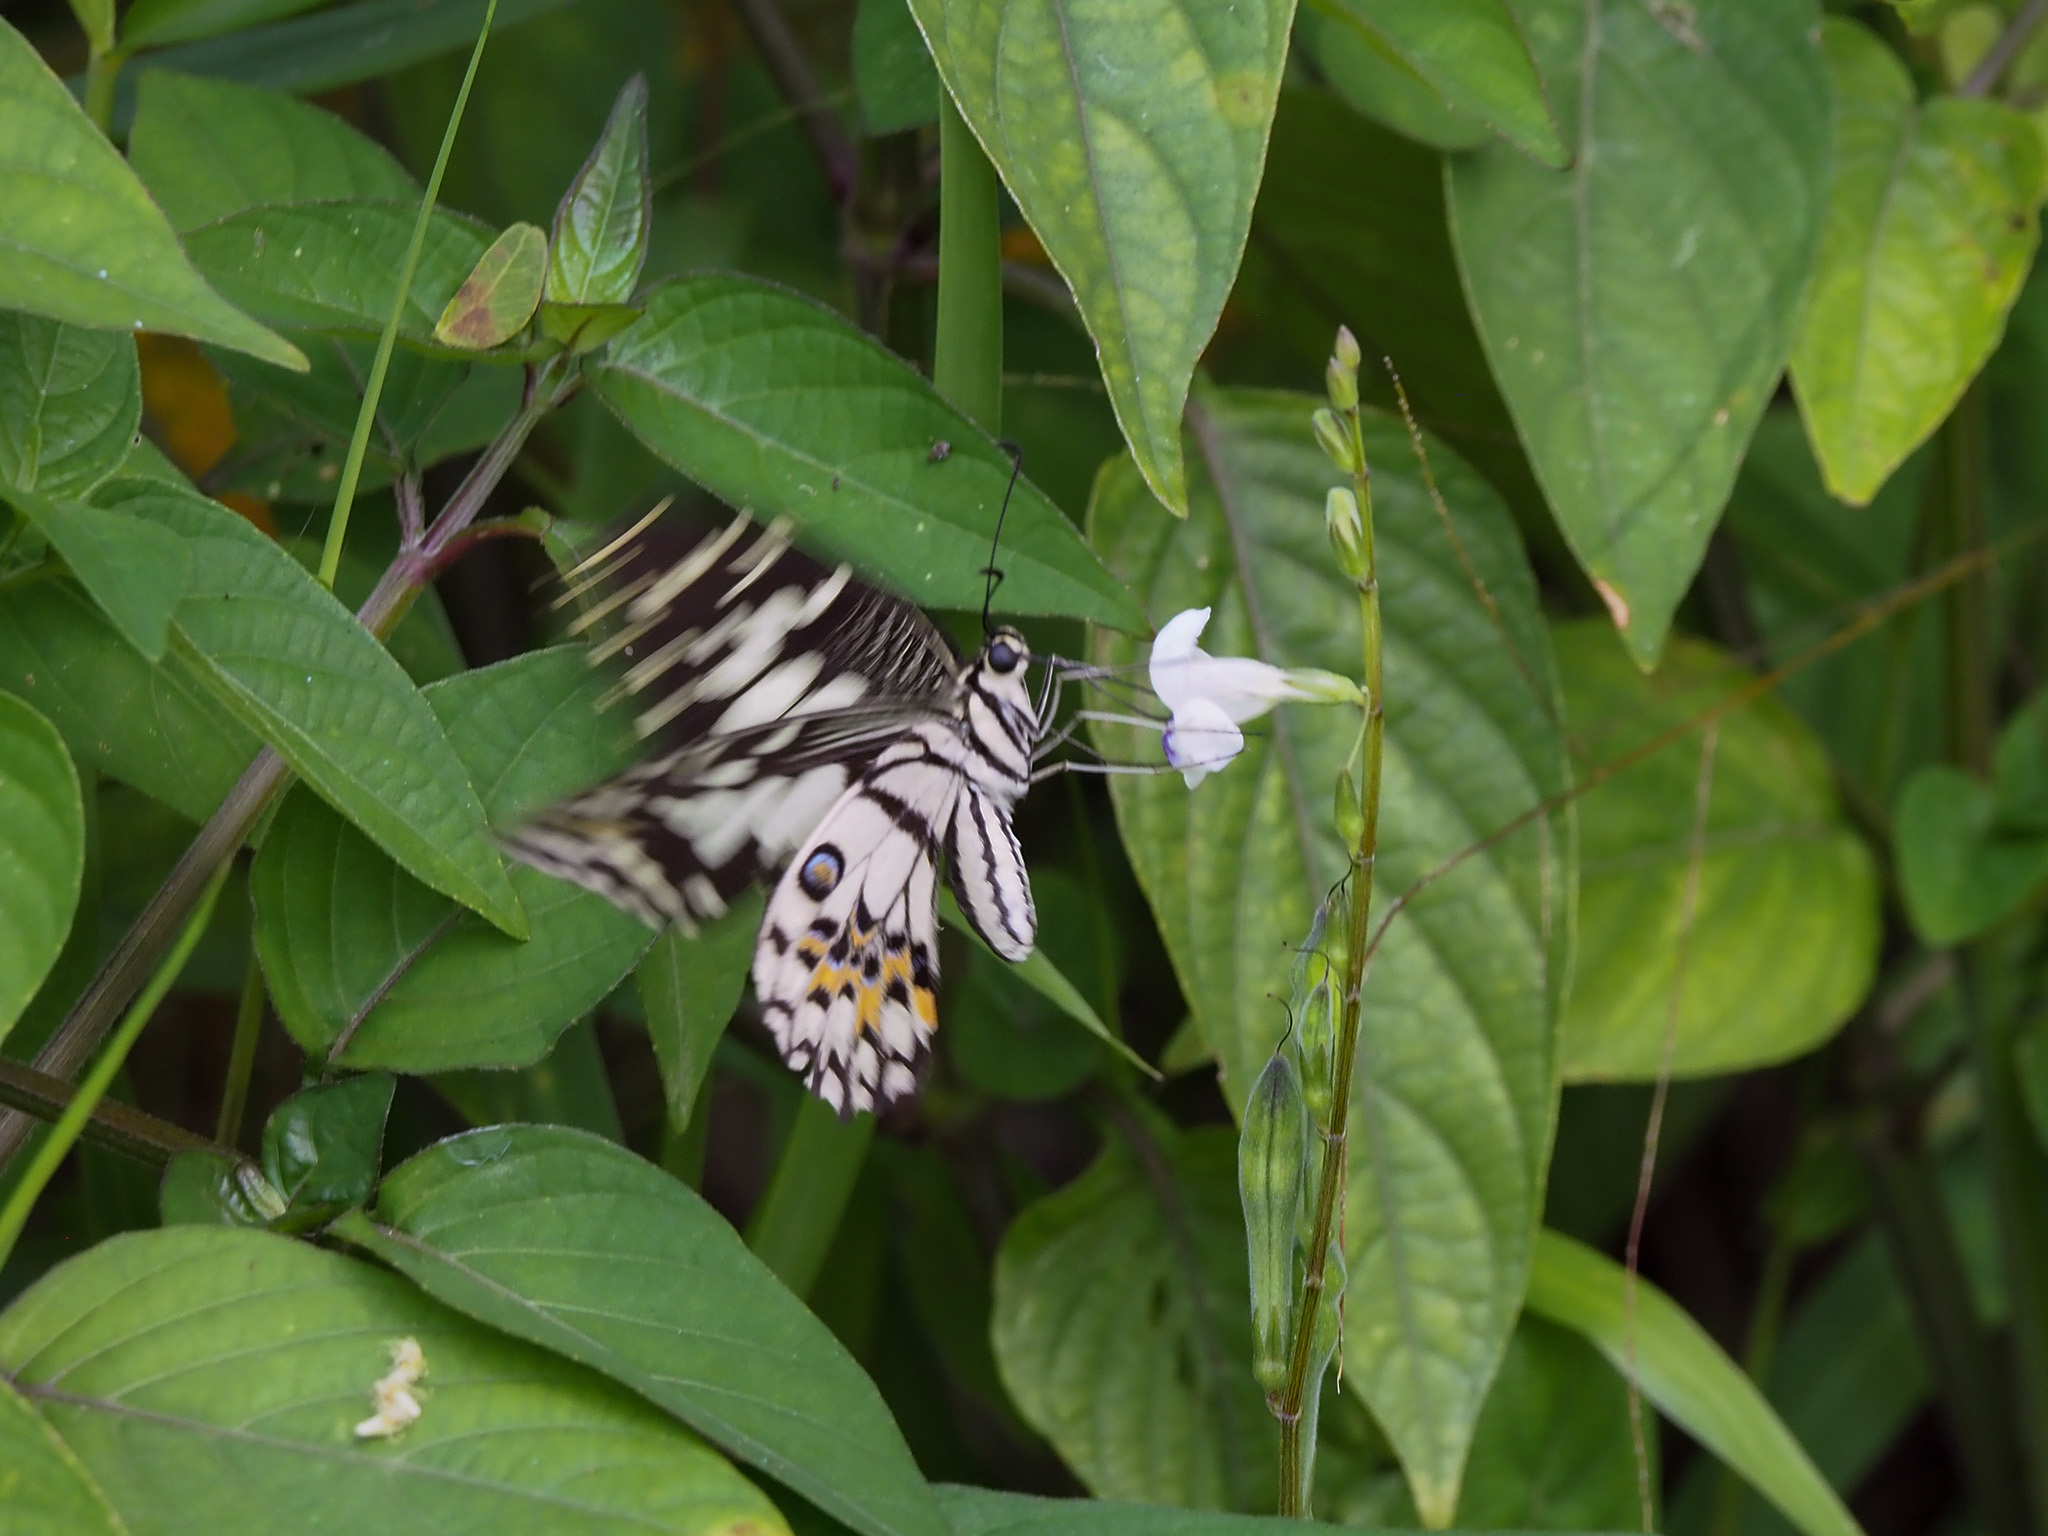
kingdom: Animalia
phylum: Arthropoda
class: Insecta
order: Lepidoptera
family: Papilionidae
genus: Papilio
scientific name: Papilio demoleus
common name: Lime butterfly
